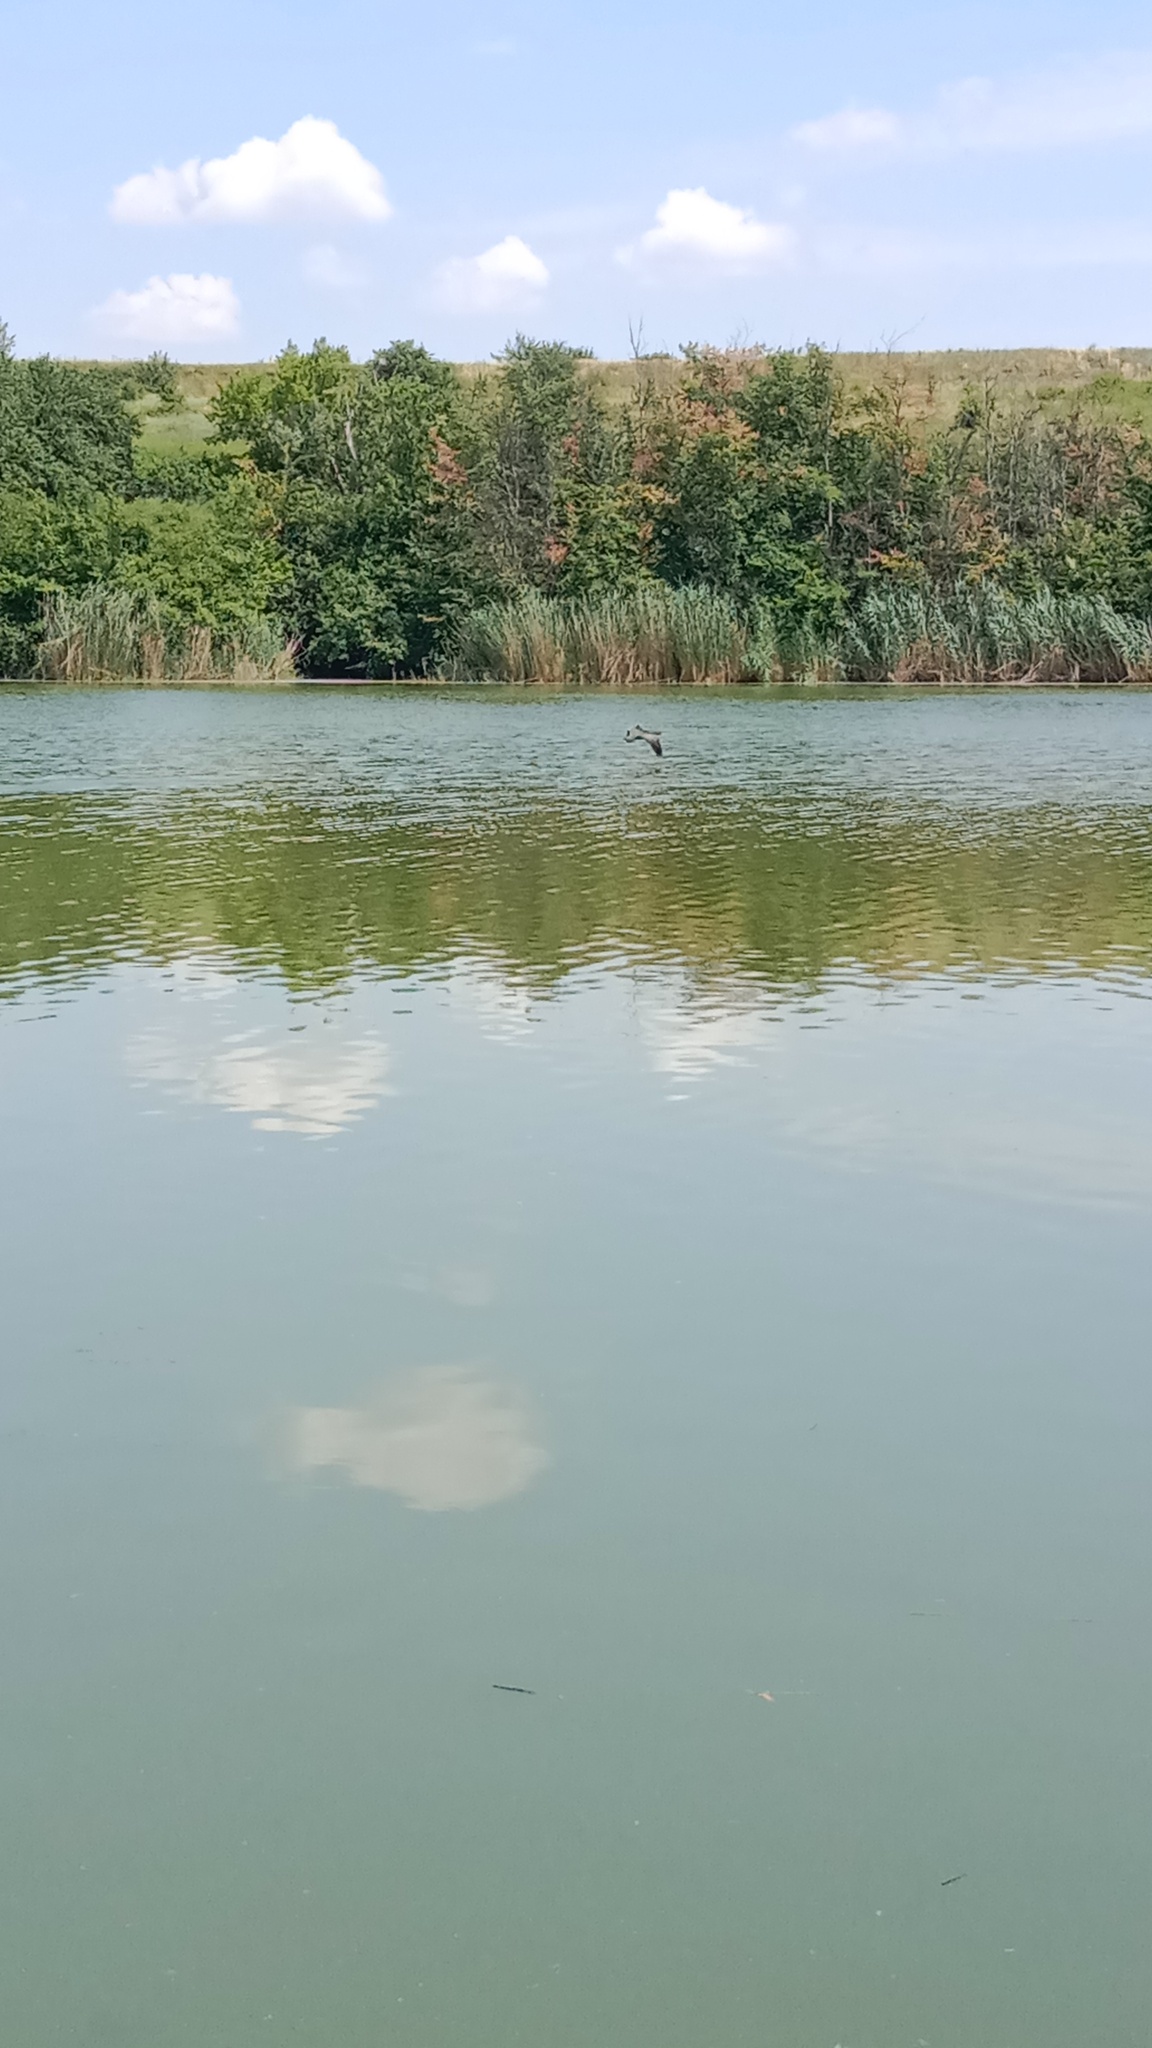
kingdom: Animalia
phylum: Chordata
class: Aves
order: Suliformes
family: Phalacrocoracidae
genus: Phalacrocorax
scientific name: Phalacrocorax carbo
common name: Great cormorant
